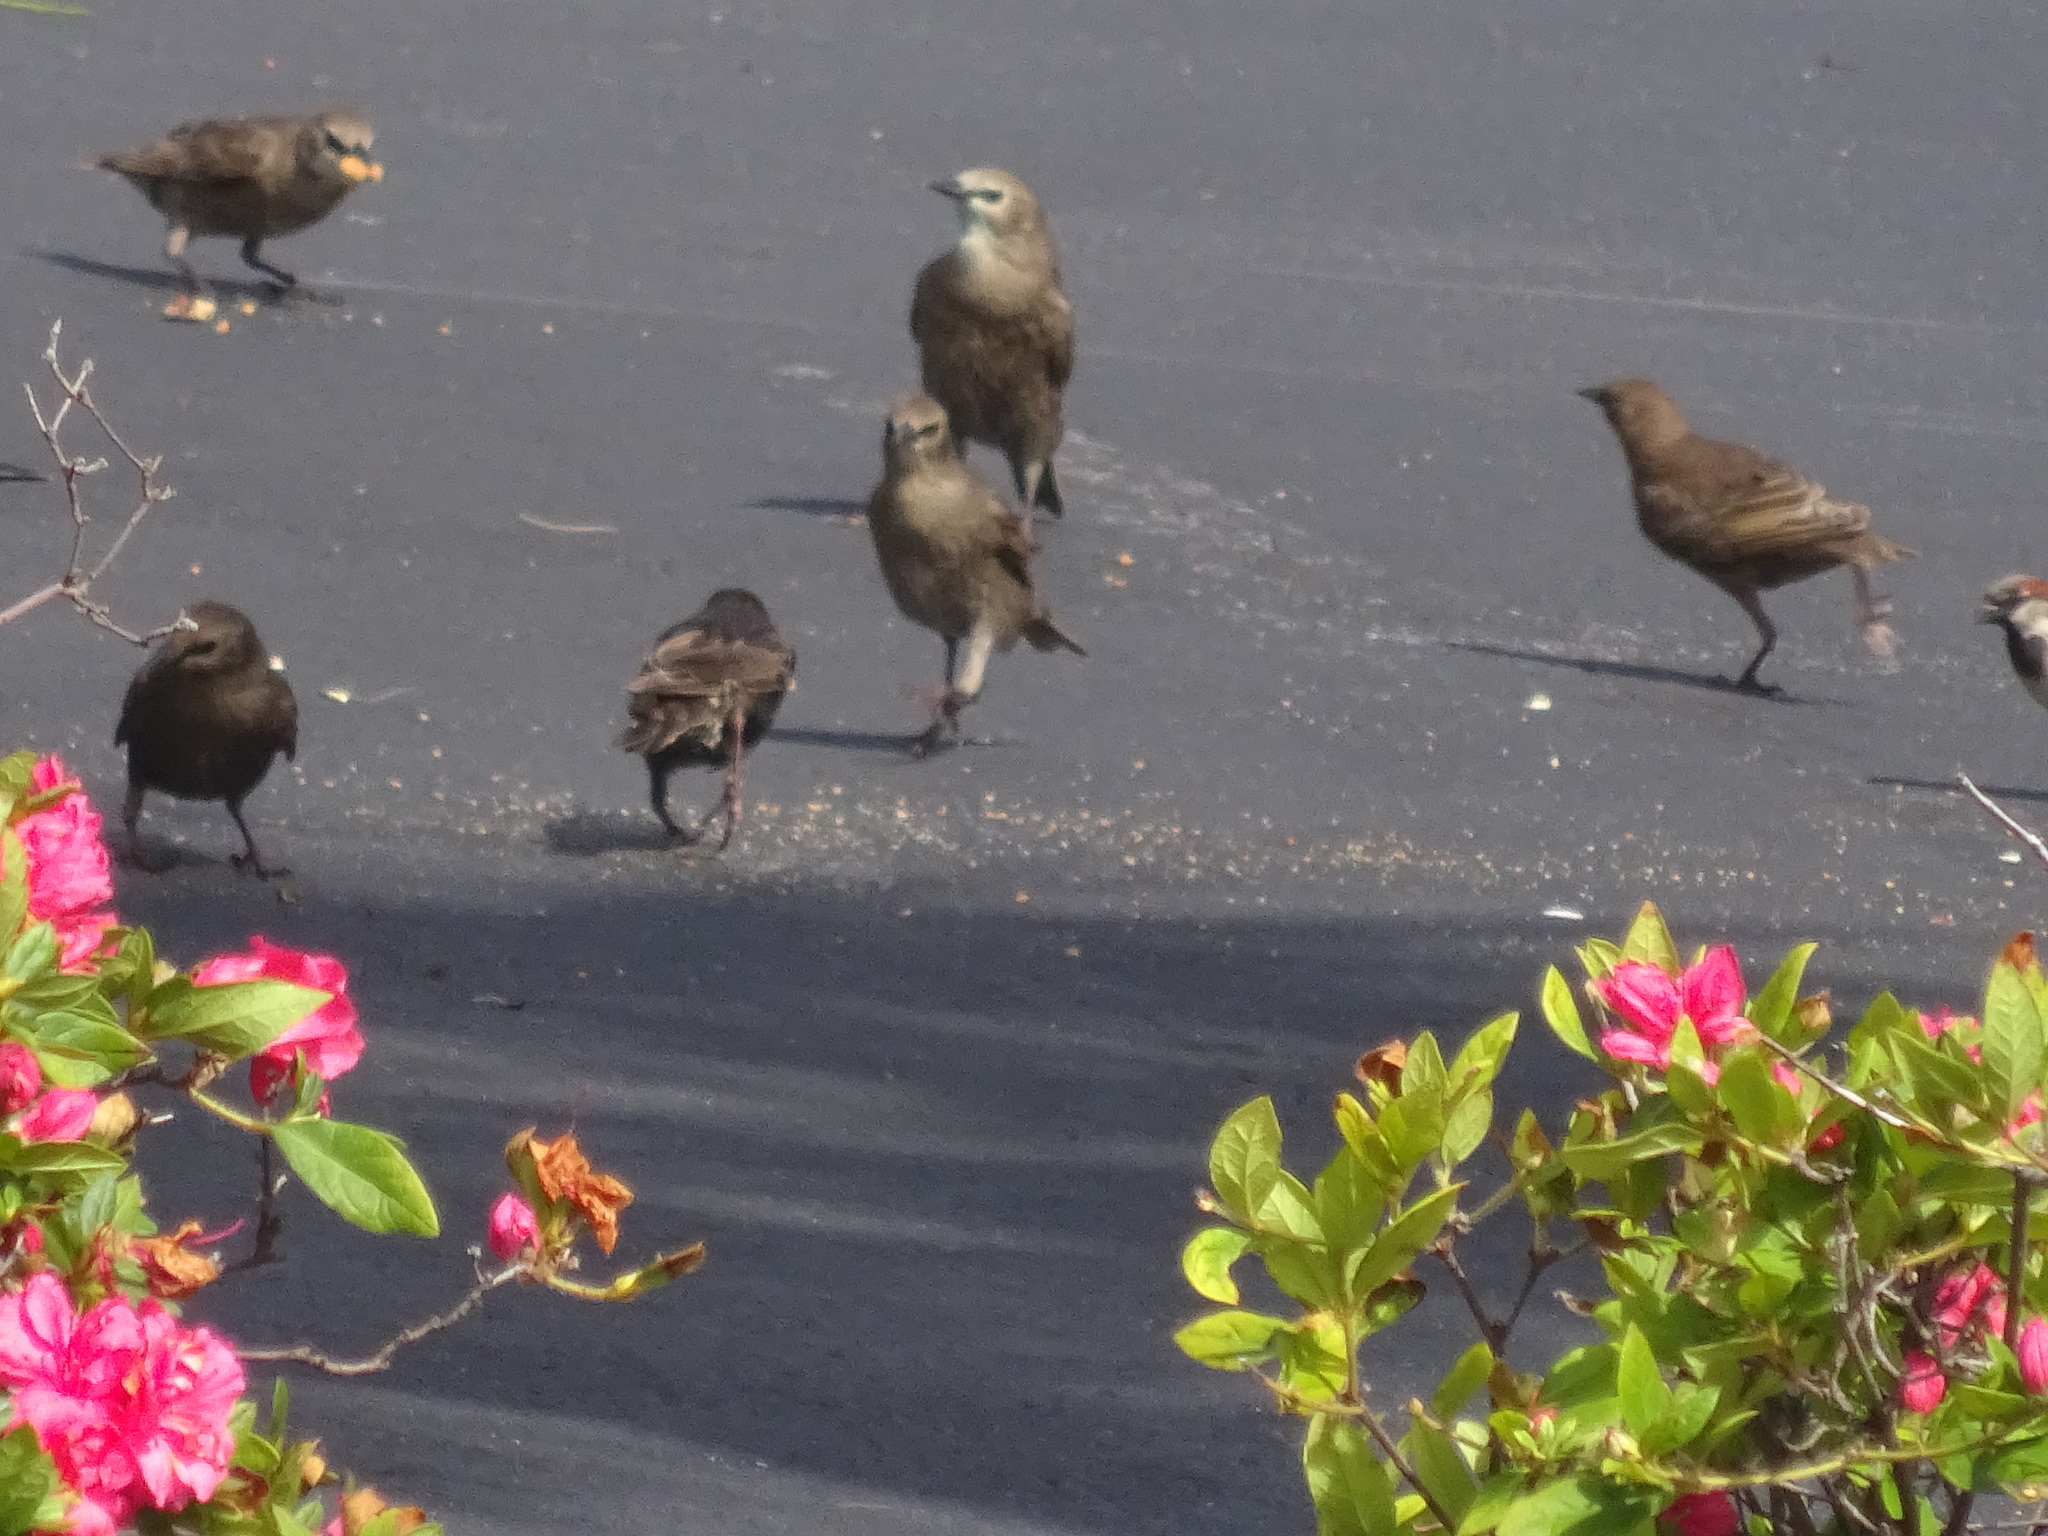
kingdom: Animalia
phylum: Chordata
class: Aves
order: Passeriformes
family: Sturnidae
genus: Sturnus
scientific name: Sturnus vulgaris
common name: Common starling
